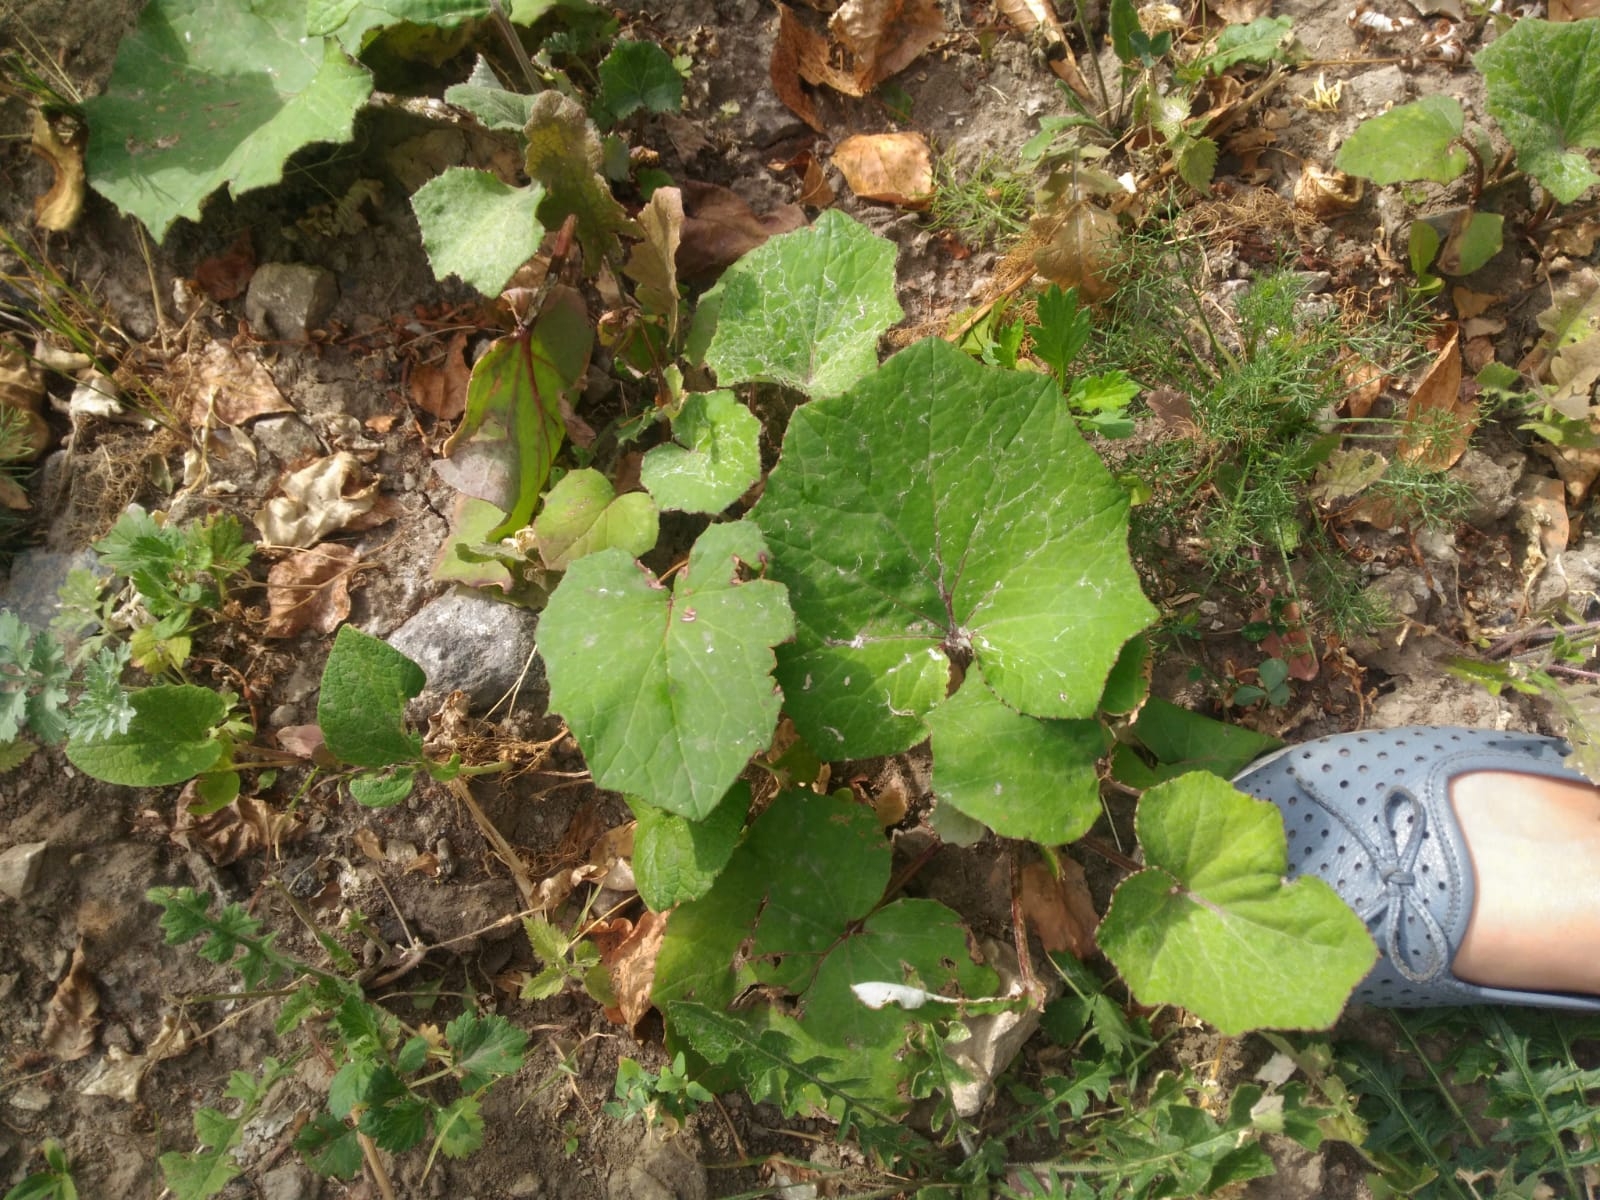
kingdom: Plantae
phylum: Tracheophyta
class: Magnoliopsida
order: Asterales
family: Asteraceae
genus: Tussilago
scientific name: Tussilago farfara
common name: Coltsfoot
